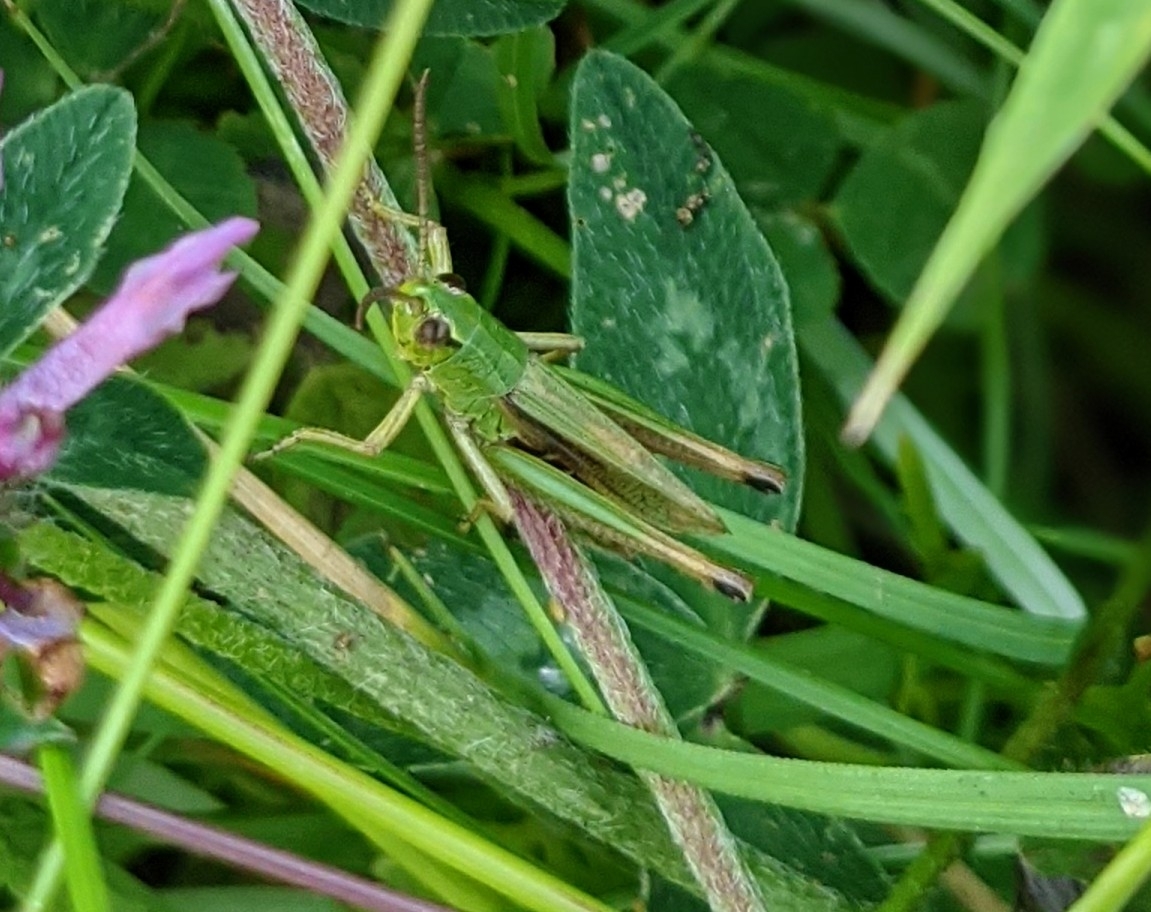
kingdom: Animalia
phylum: Arthropoda
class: Insecta
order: Orthoptera
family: Acrididae
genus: Pseudochorthippus
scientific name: Pseudochorthippus parallelus
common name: Meadow grasshopper
